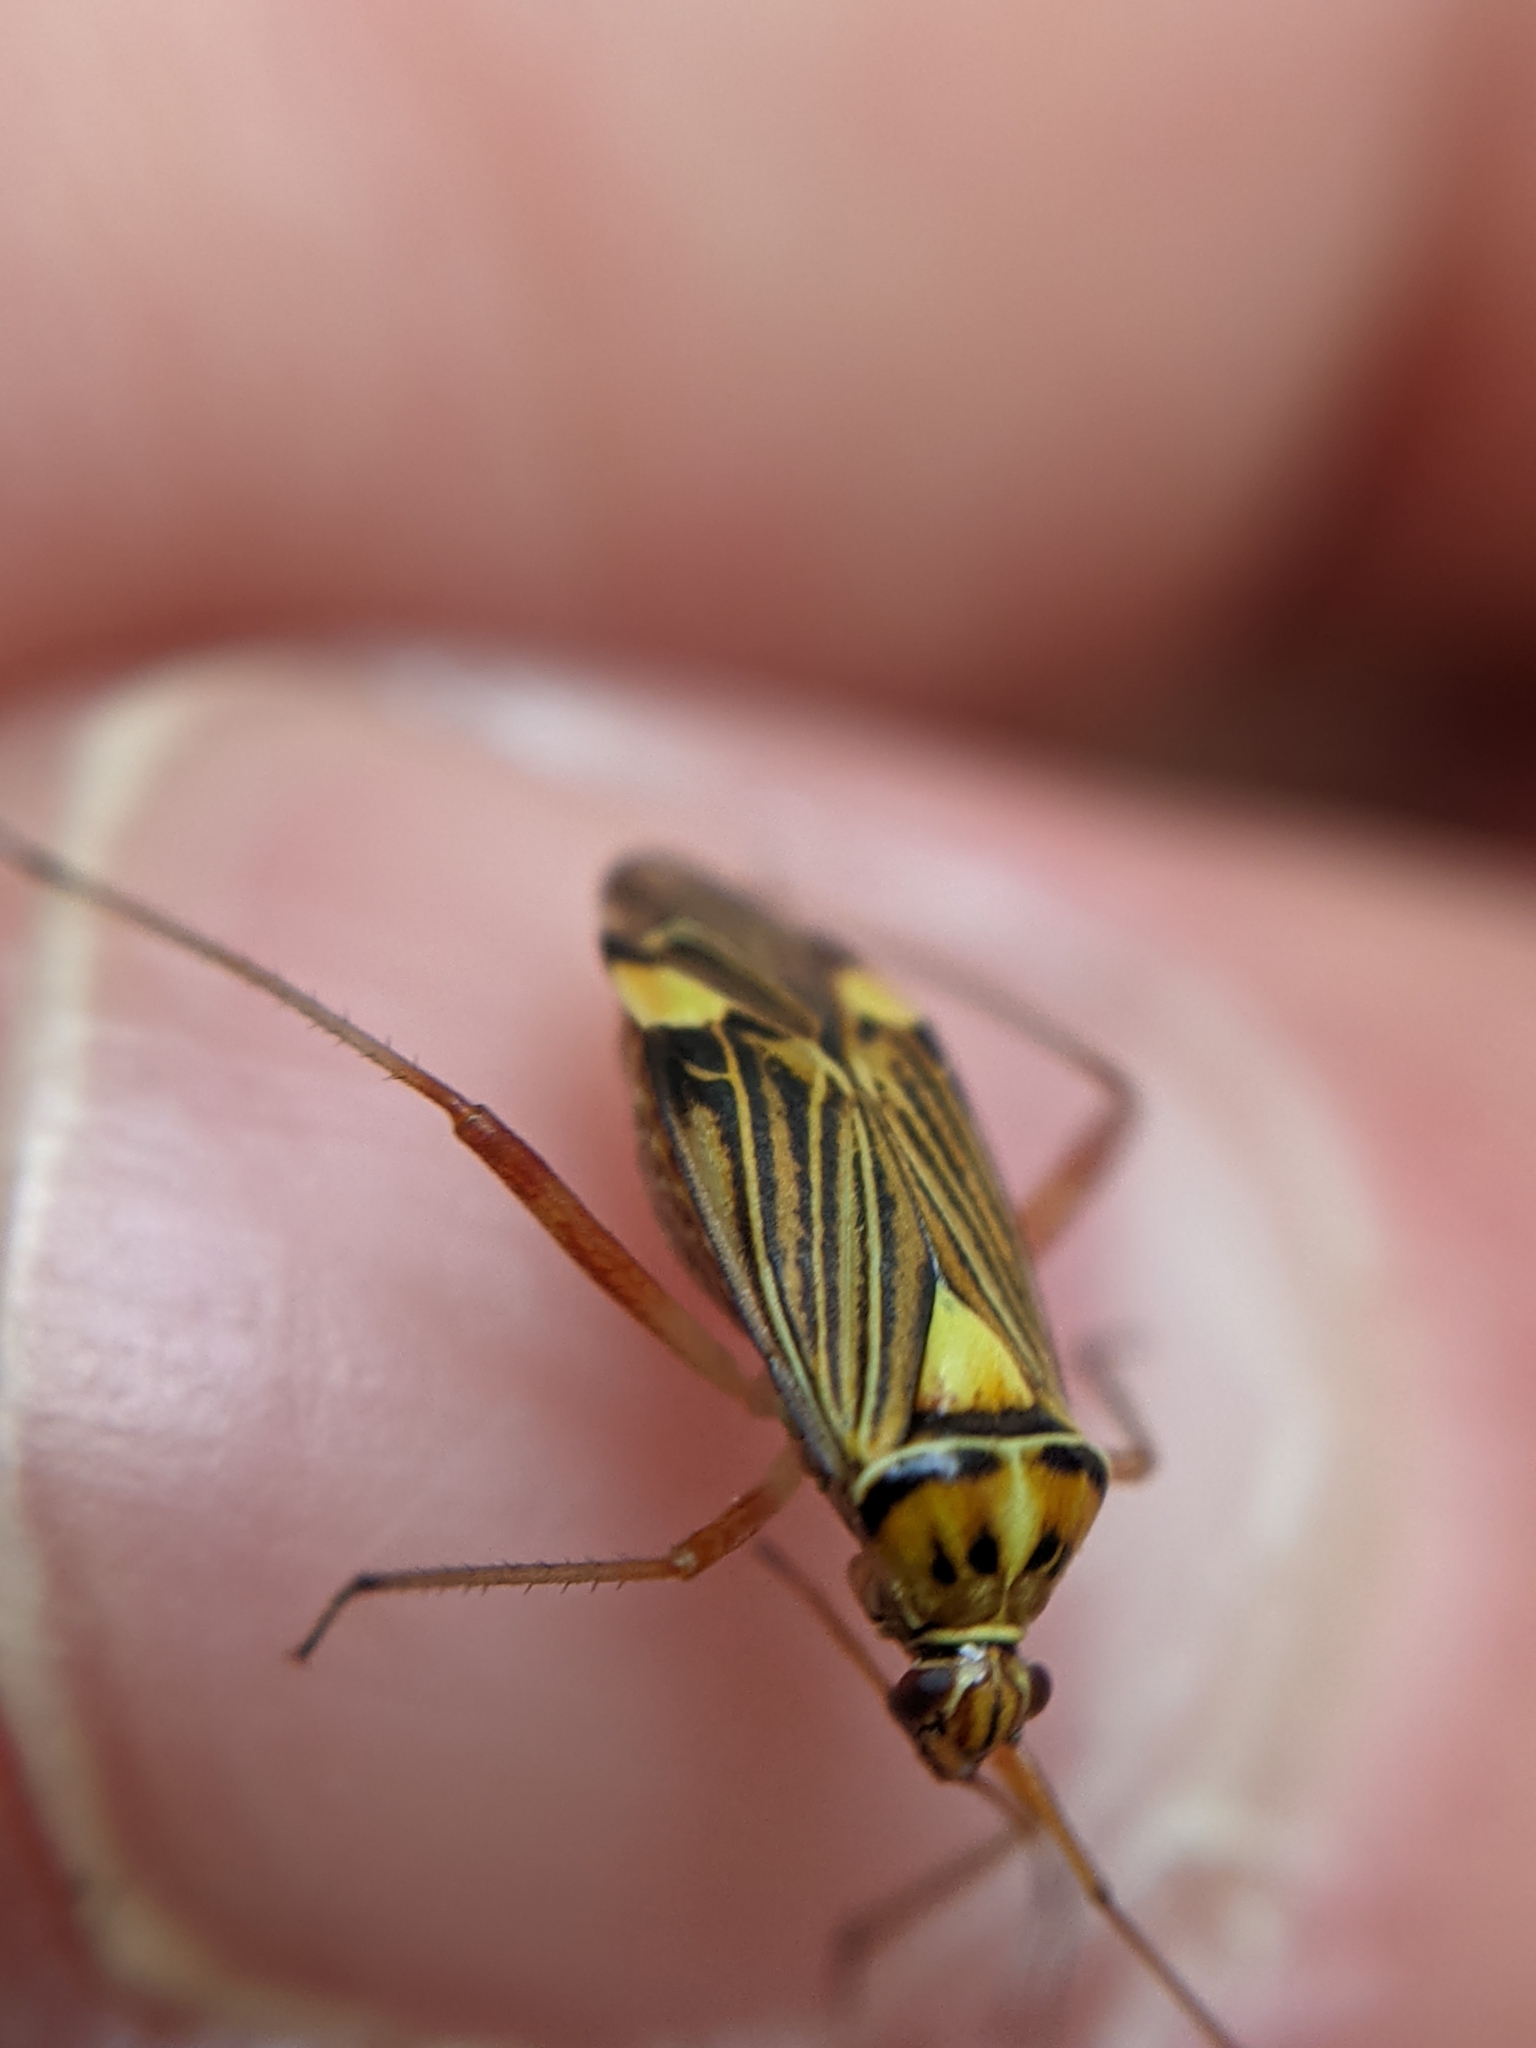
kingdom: Animalia
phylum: Arthropoda
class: Insecta
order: Hemiptera
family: Miridae
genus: Rhabdomiris
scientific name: Rhabdomiris striatellus
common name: Plant bug
